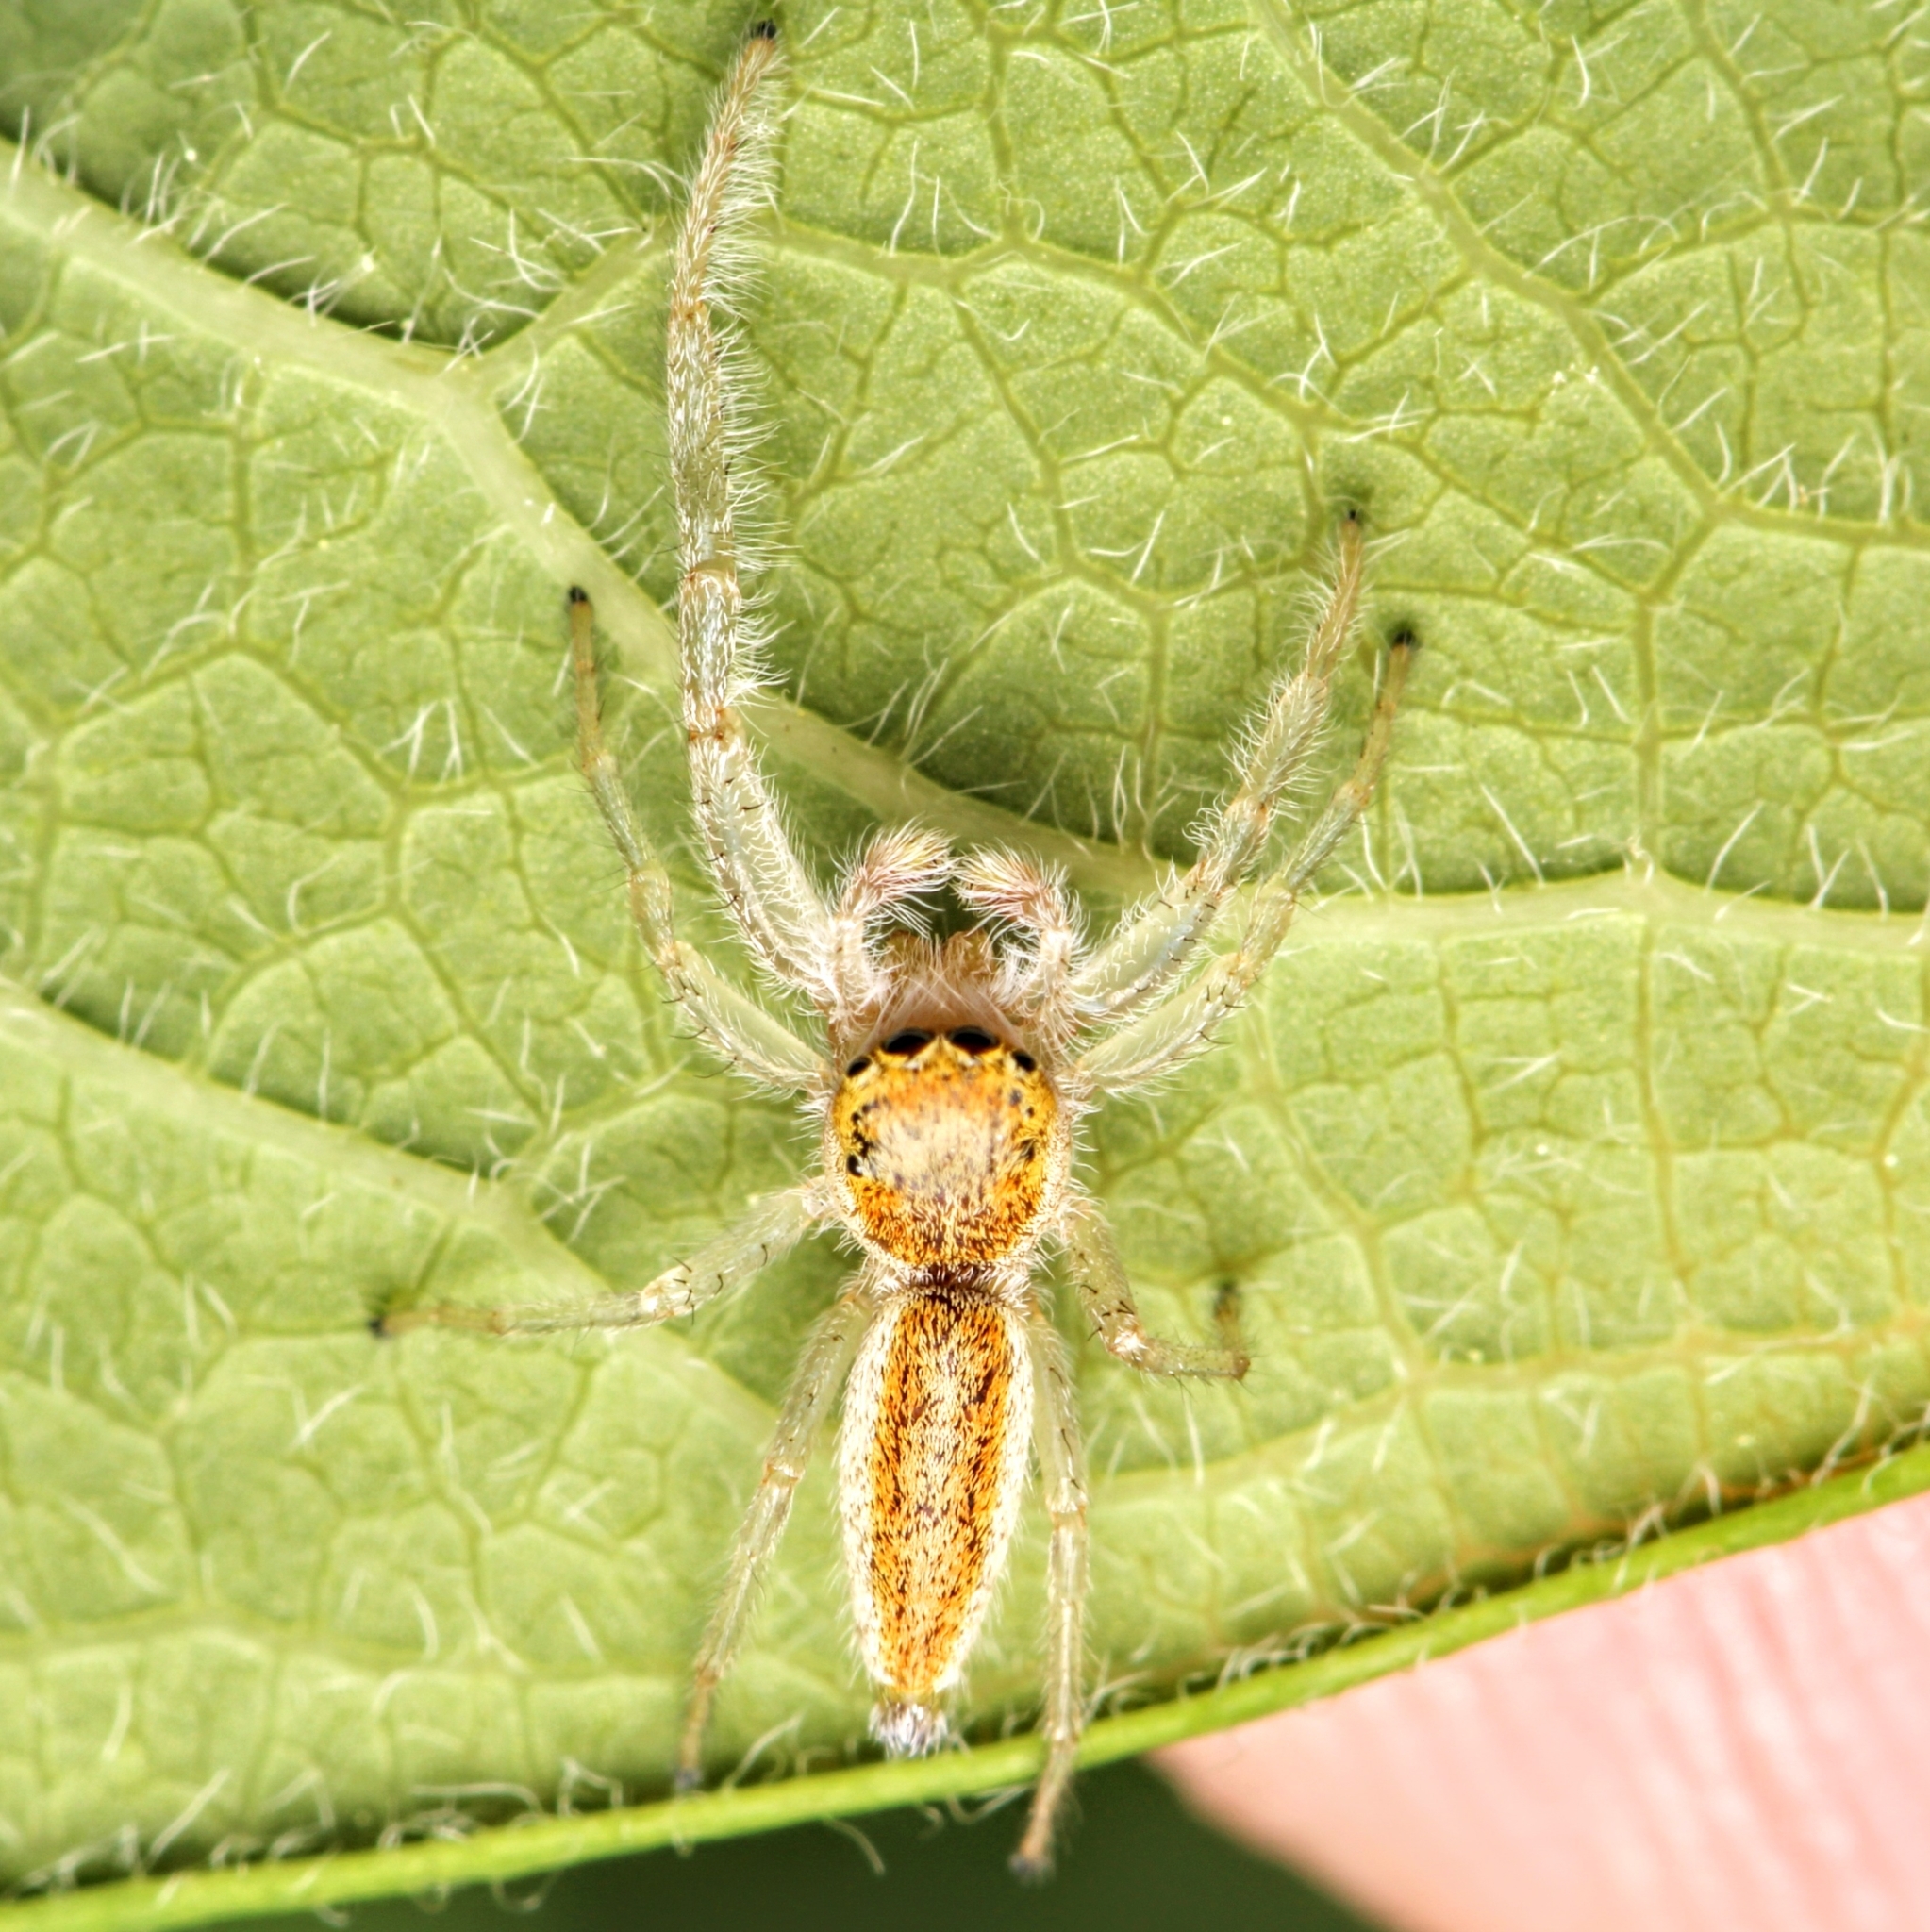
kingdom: Animalia
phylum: Arthropoda
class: Arachnida
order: Araneae
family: Salticidae
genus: Hentzia
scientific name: Hentzia mitrata
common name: White-jawed jumping spider
